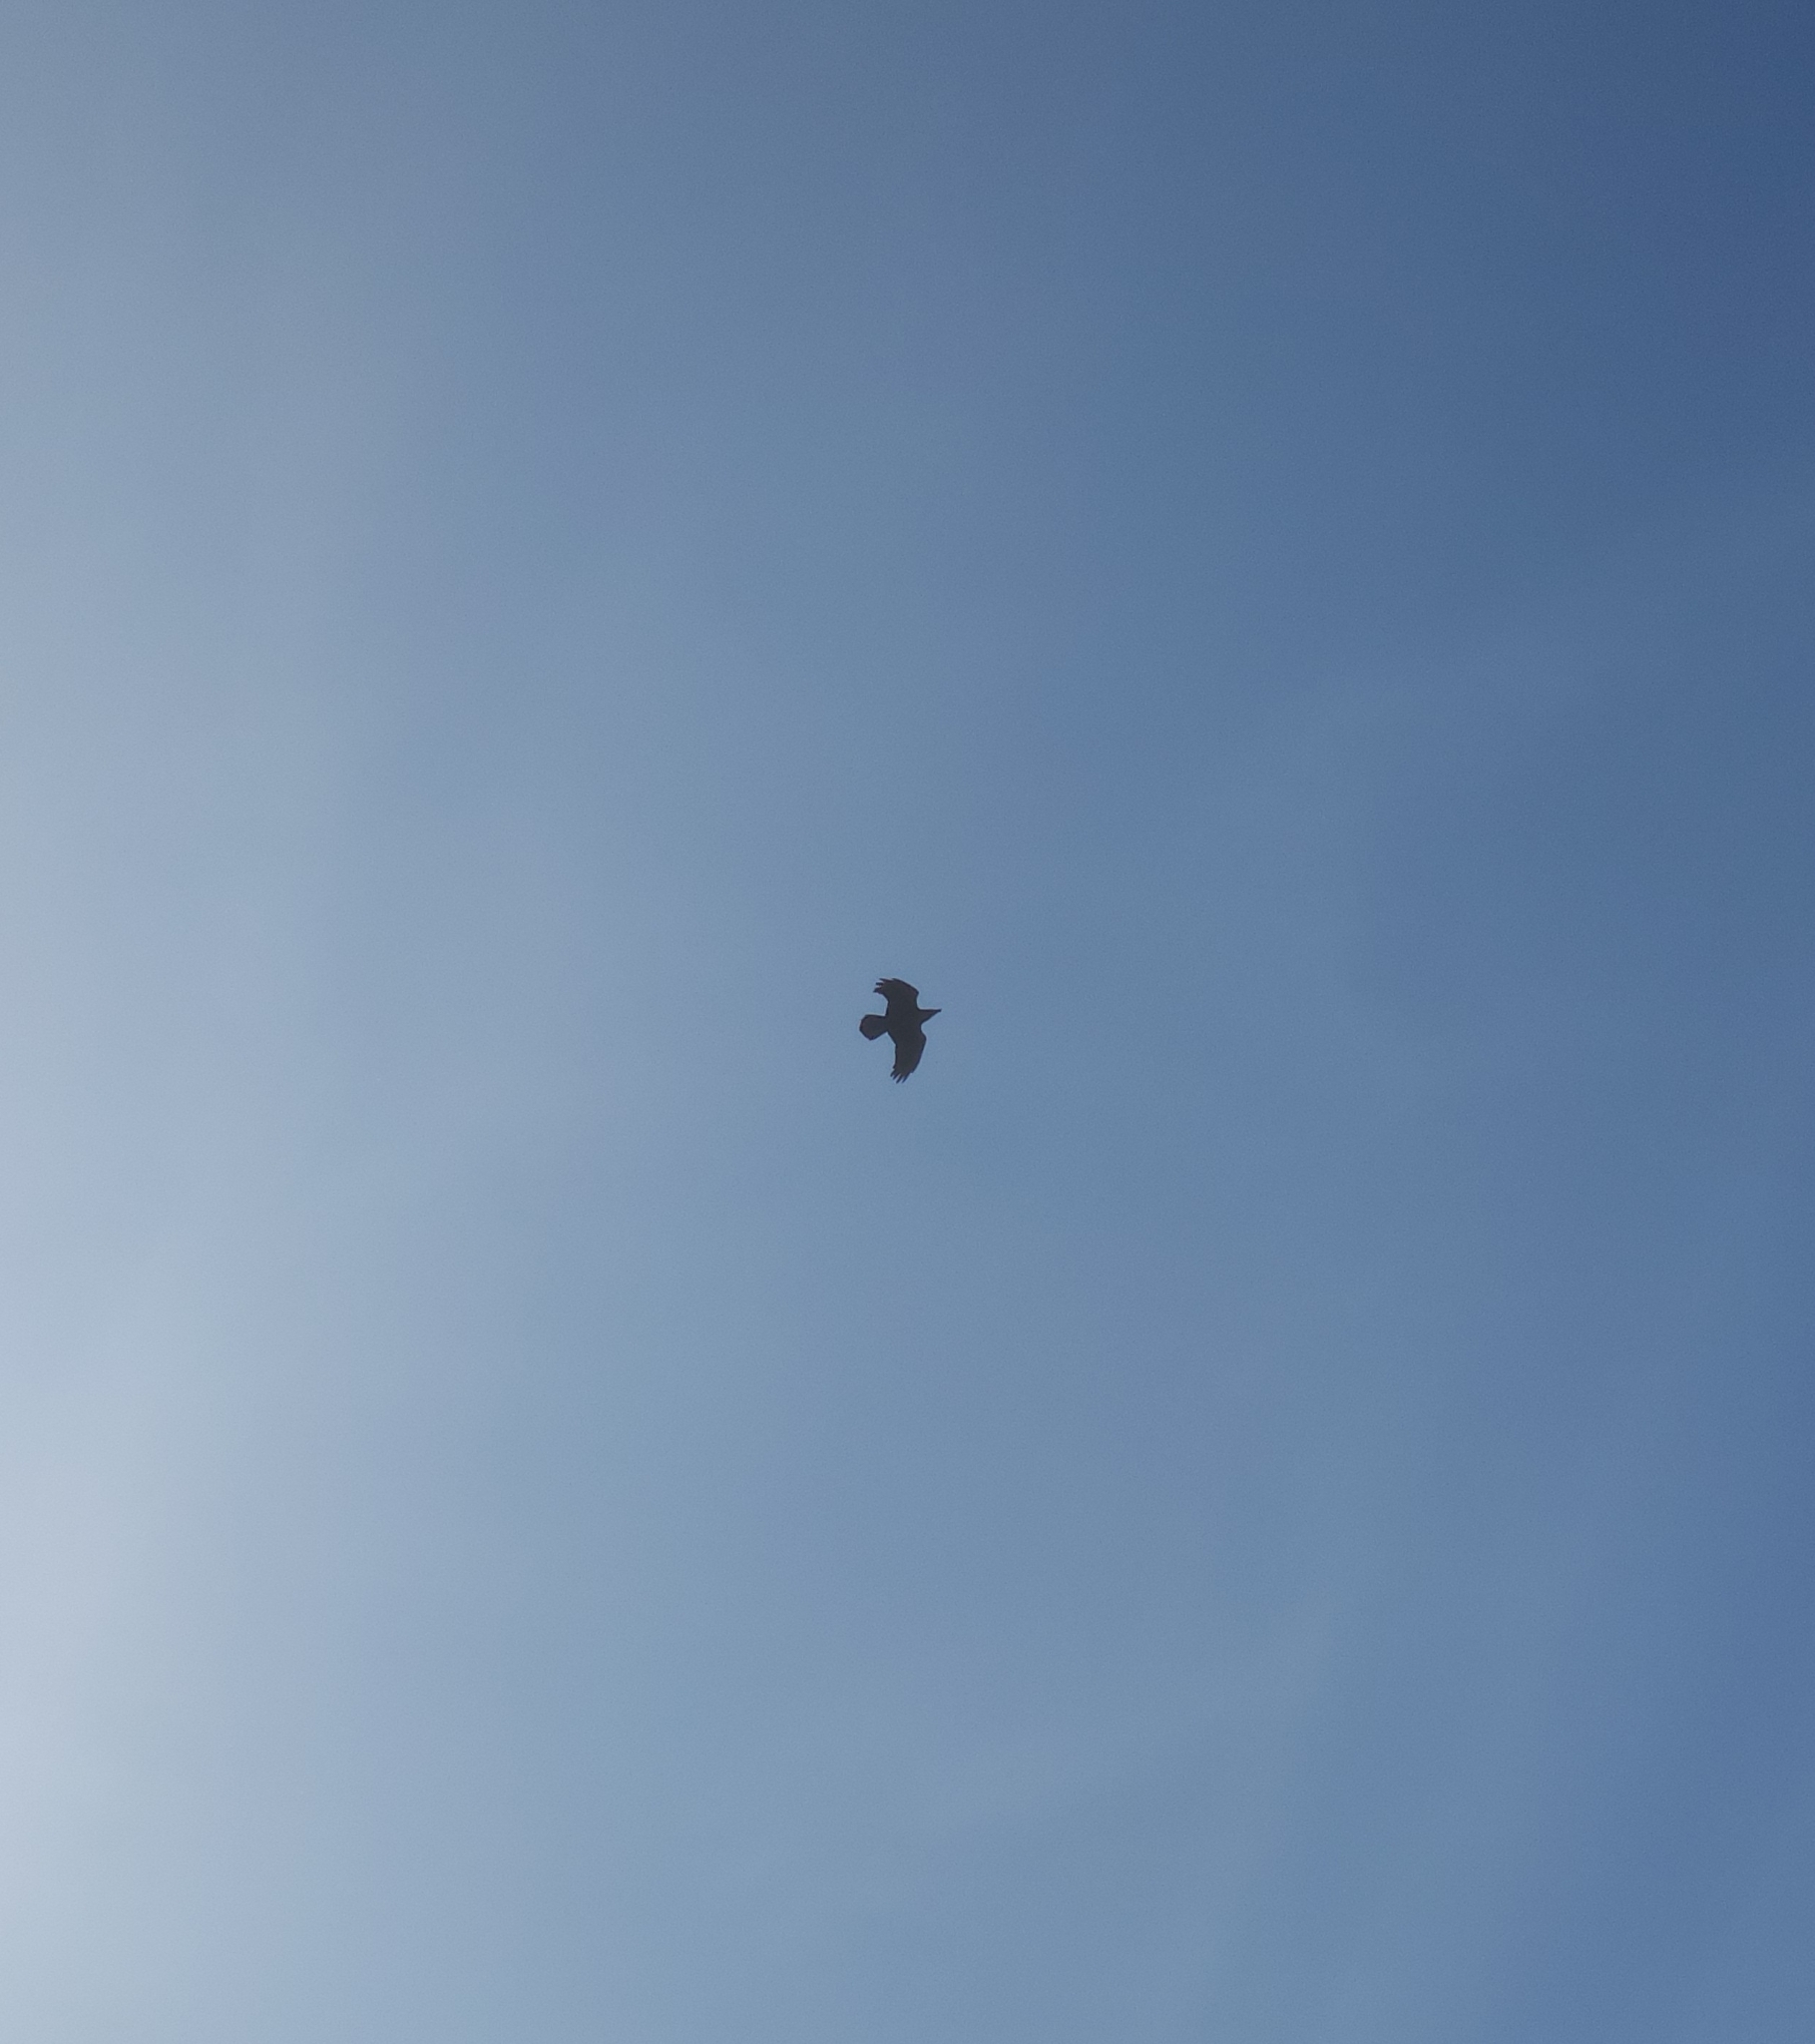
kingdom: Animalia
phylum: Chordata
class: Aves
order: Passeriformes
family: Corvidae
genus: Corvus
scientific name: Corvus corax
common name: Common raven
